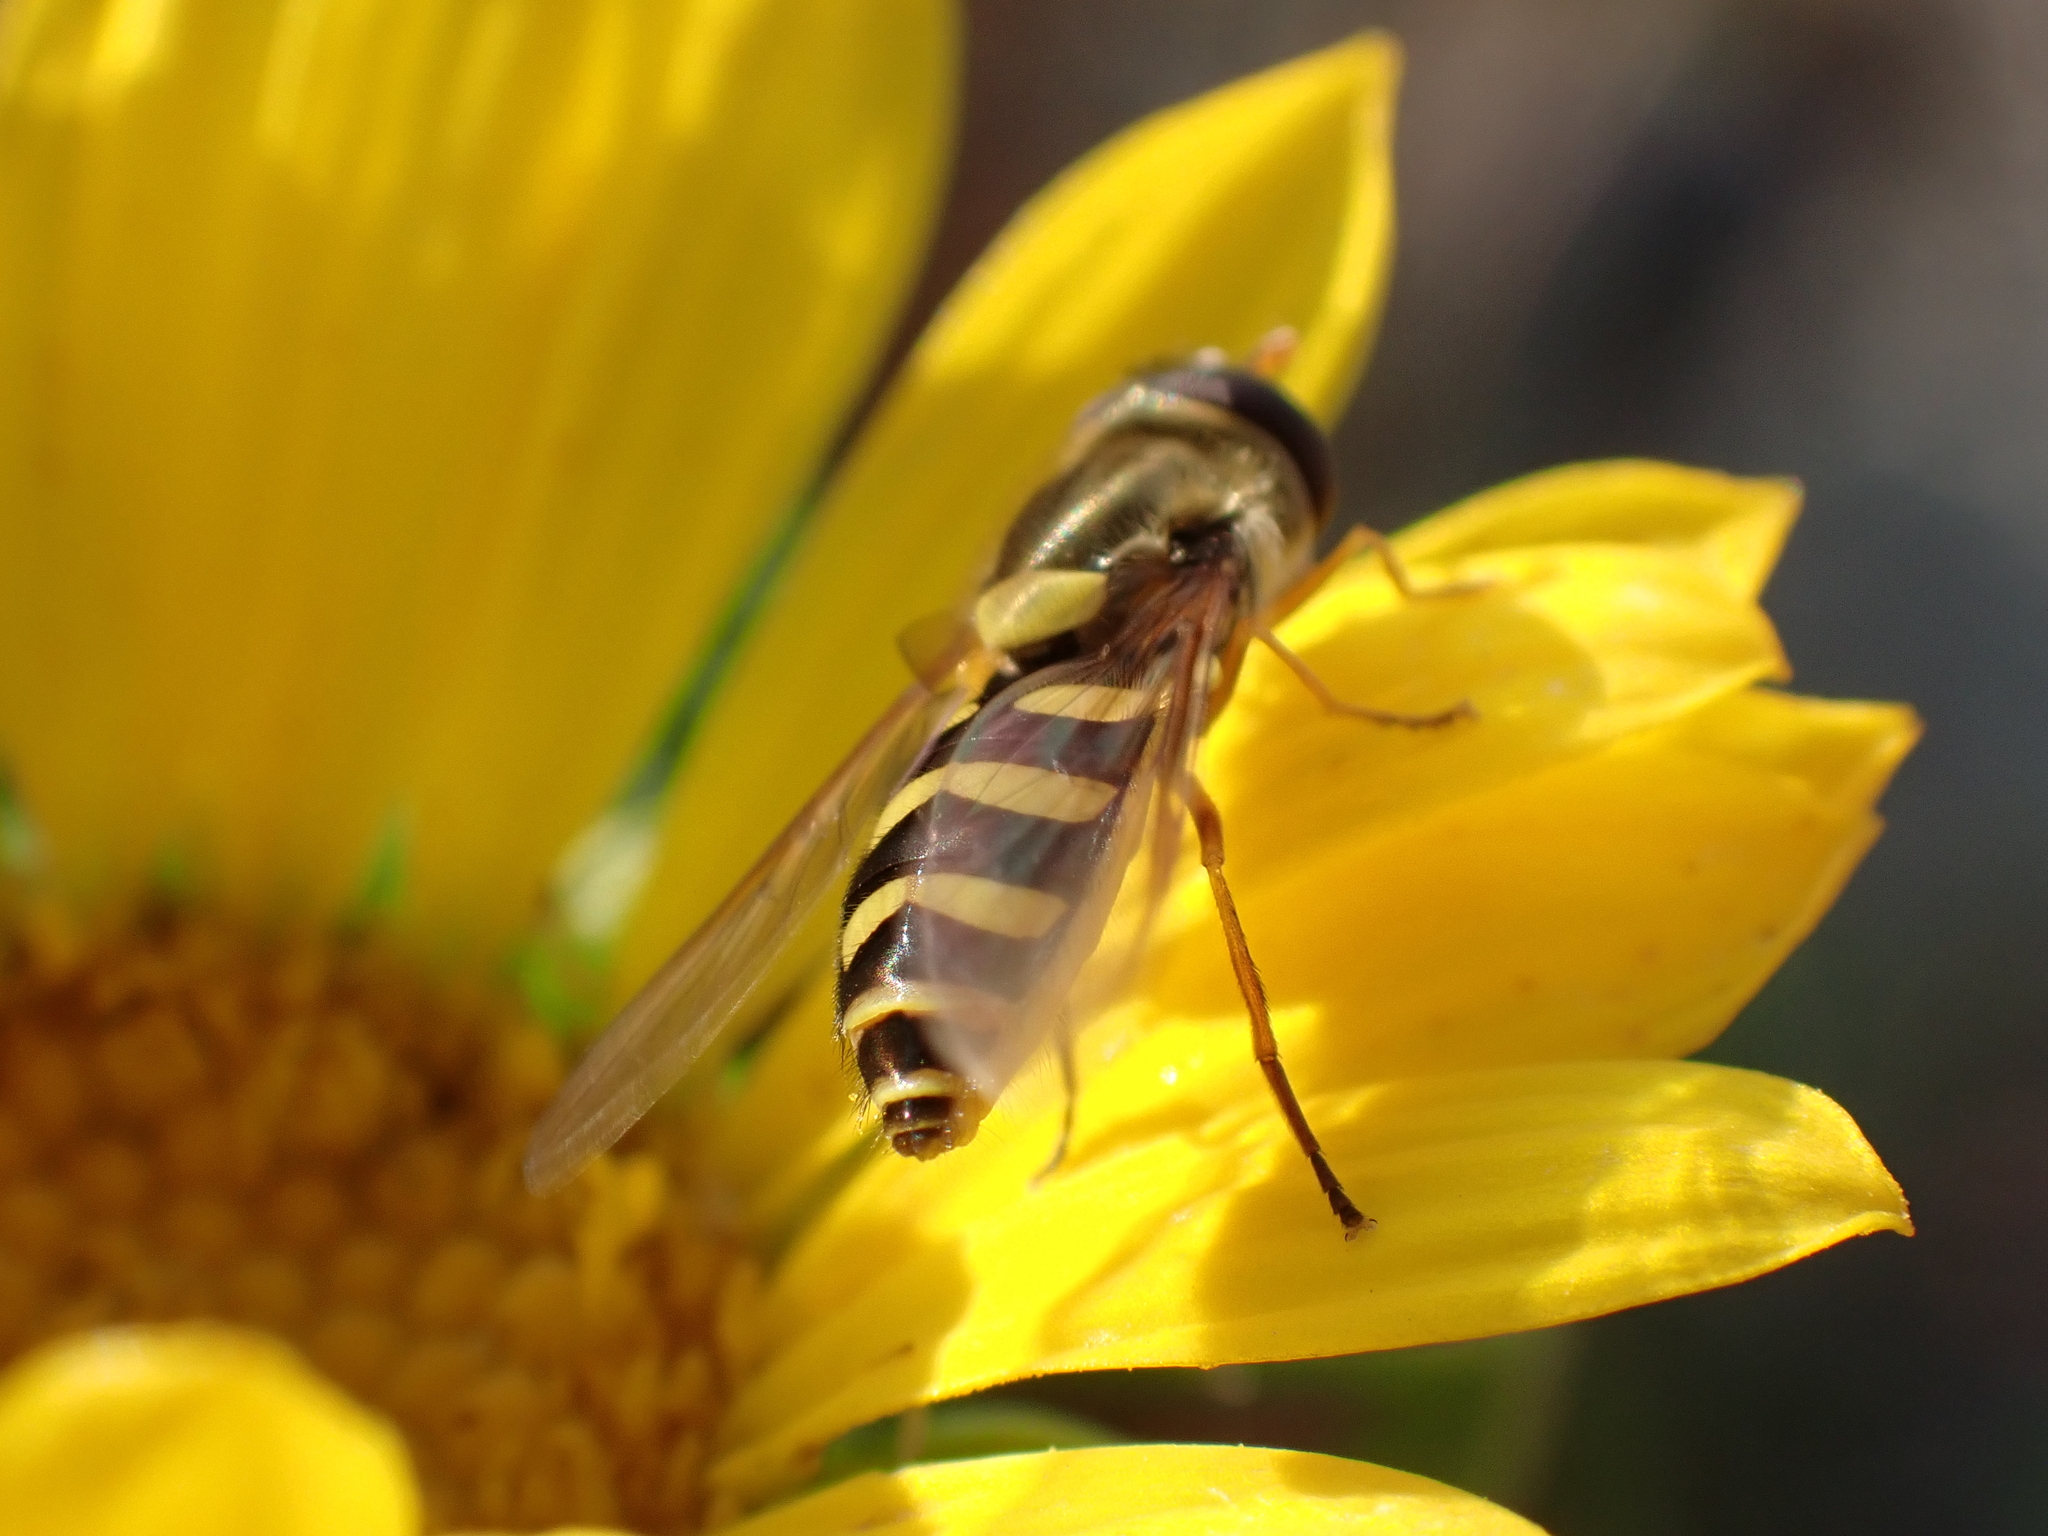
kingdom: Animalia
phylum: Arthropoda
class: Insecta
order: Diptera
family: Syrphidae
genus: Syrphus
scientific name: Syrphus opinator
